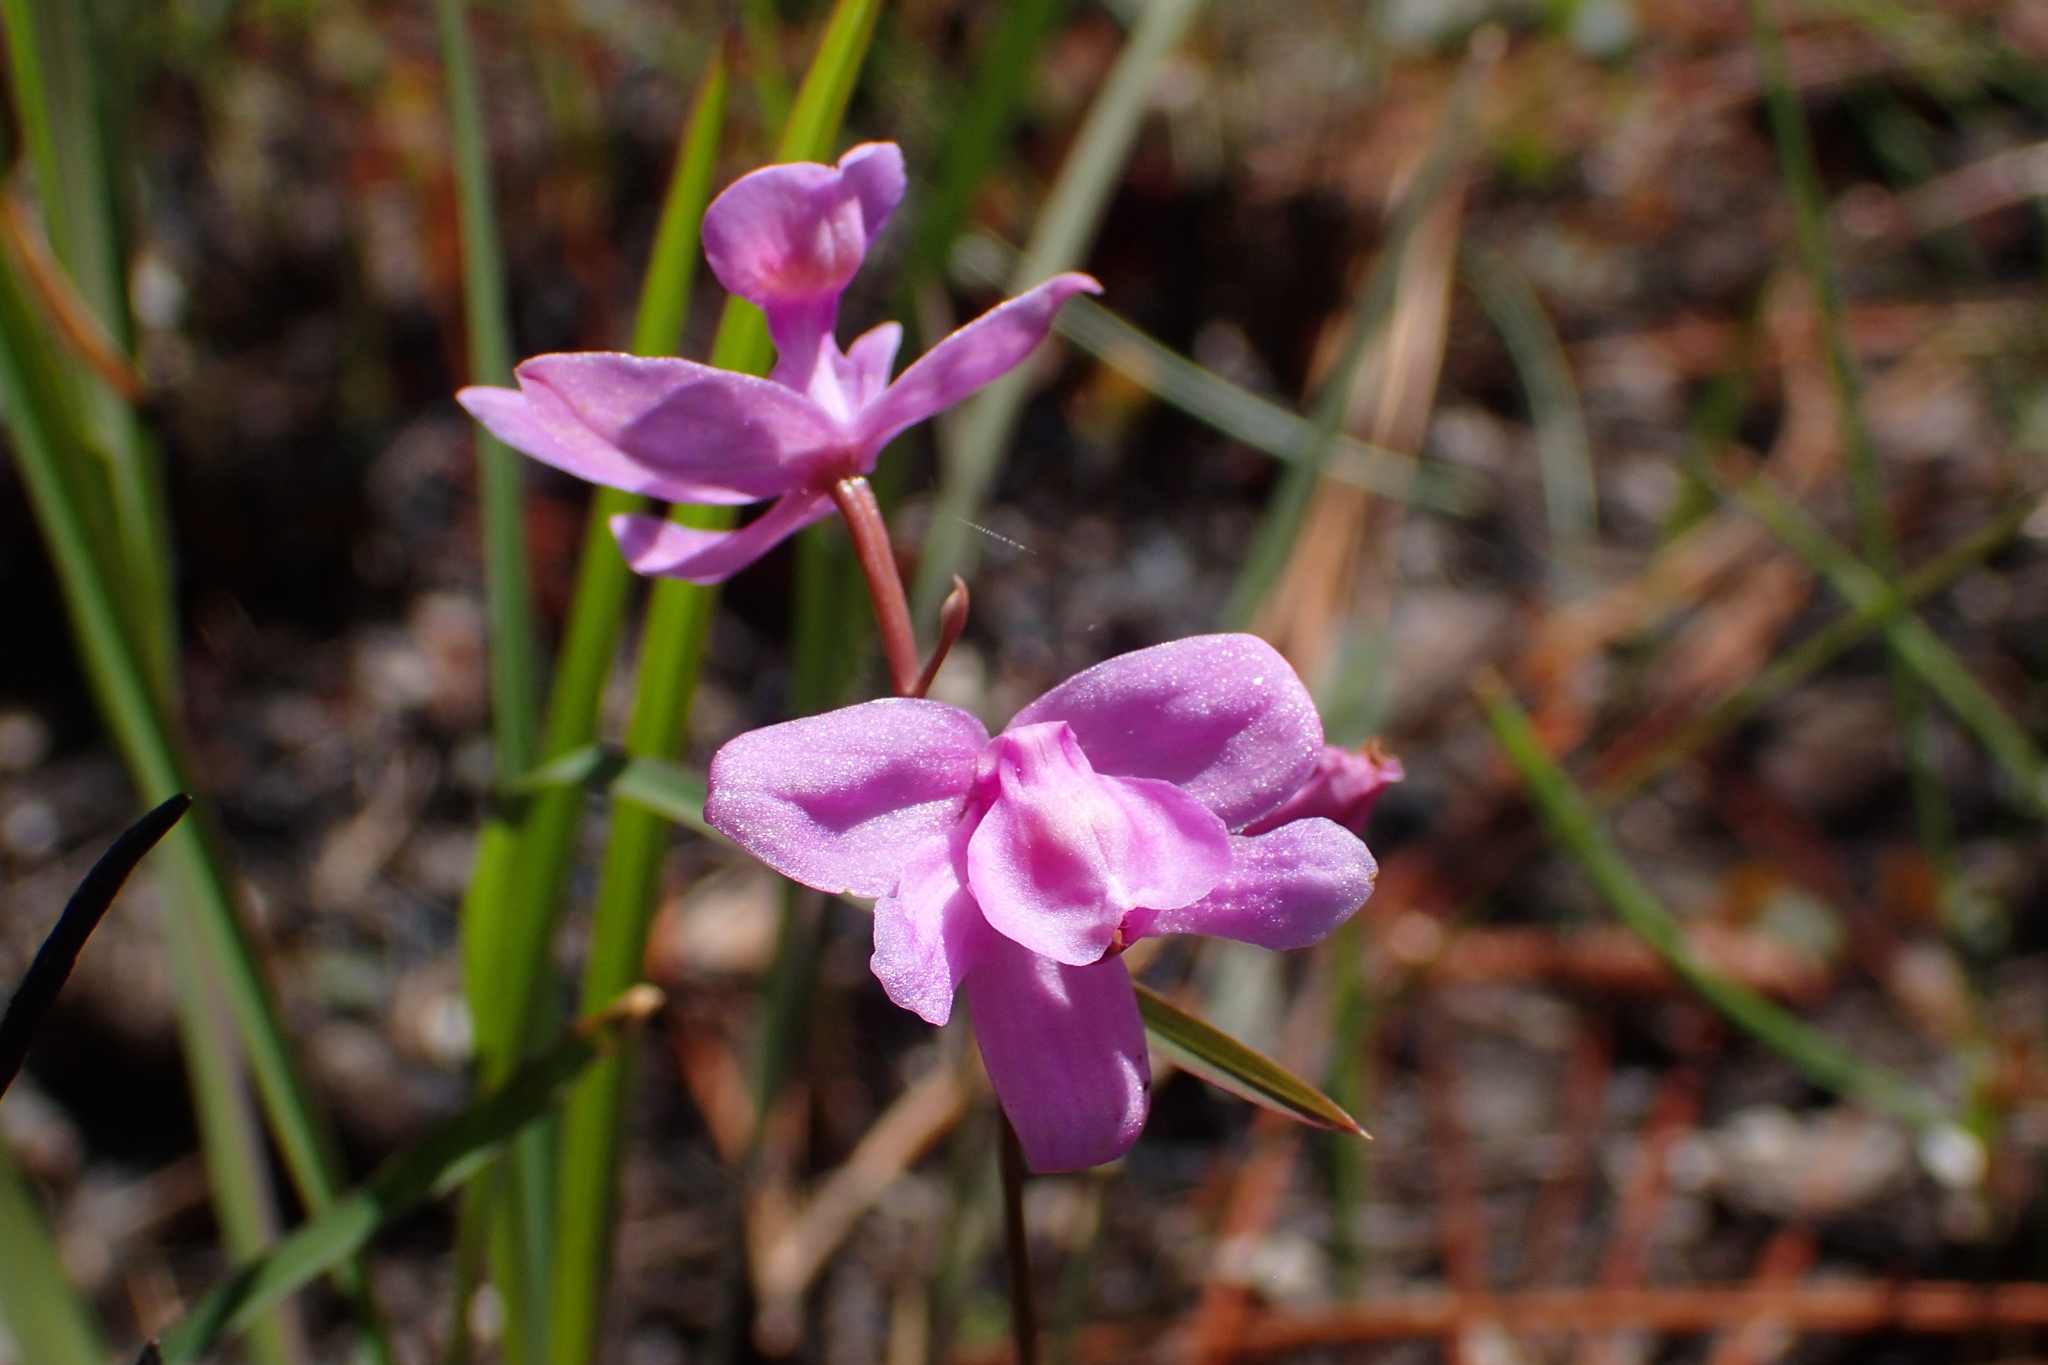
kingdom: Plantae
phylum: Tracheophyta
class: Liliopsida
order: Asparagales
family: Orchidaceae
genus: Calopogon
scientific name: Calopogon barbatus
